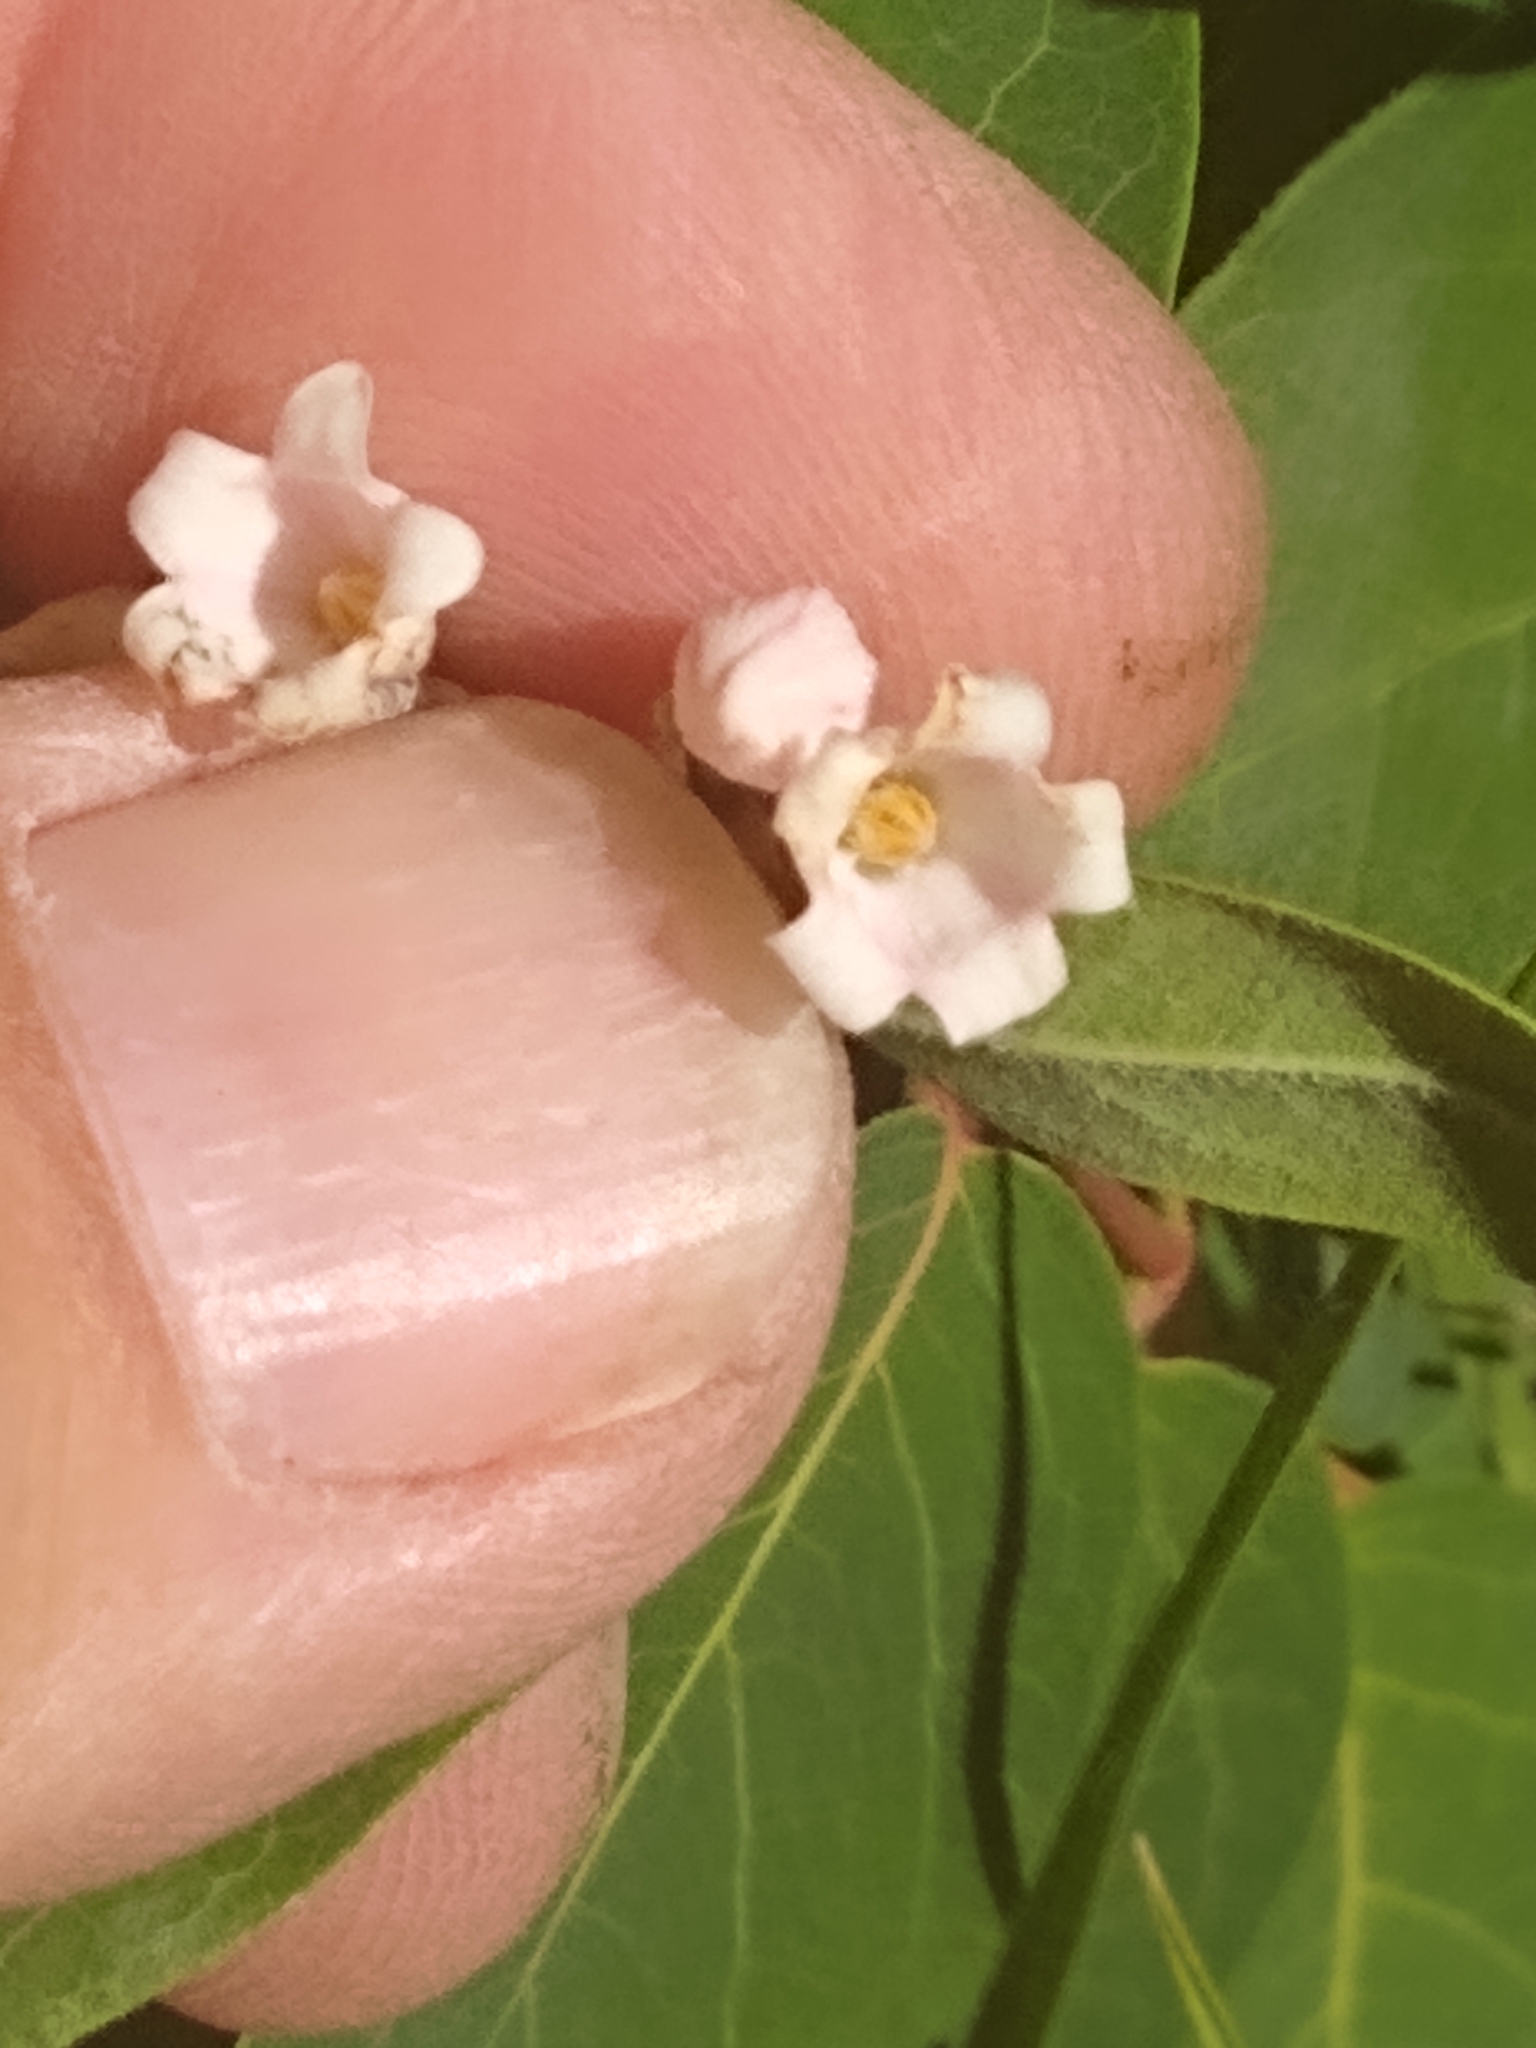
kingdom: Plantae
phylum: Tracheophyta
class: Magnoliopsida
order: Gentianales
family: Apocynaceae
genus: Apocynum
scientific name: Apocynum androsaemifolium
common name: Spreading dogbane
